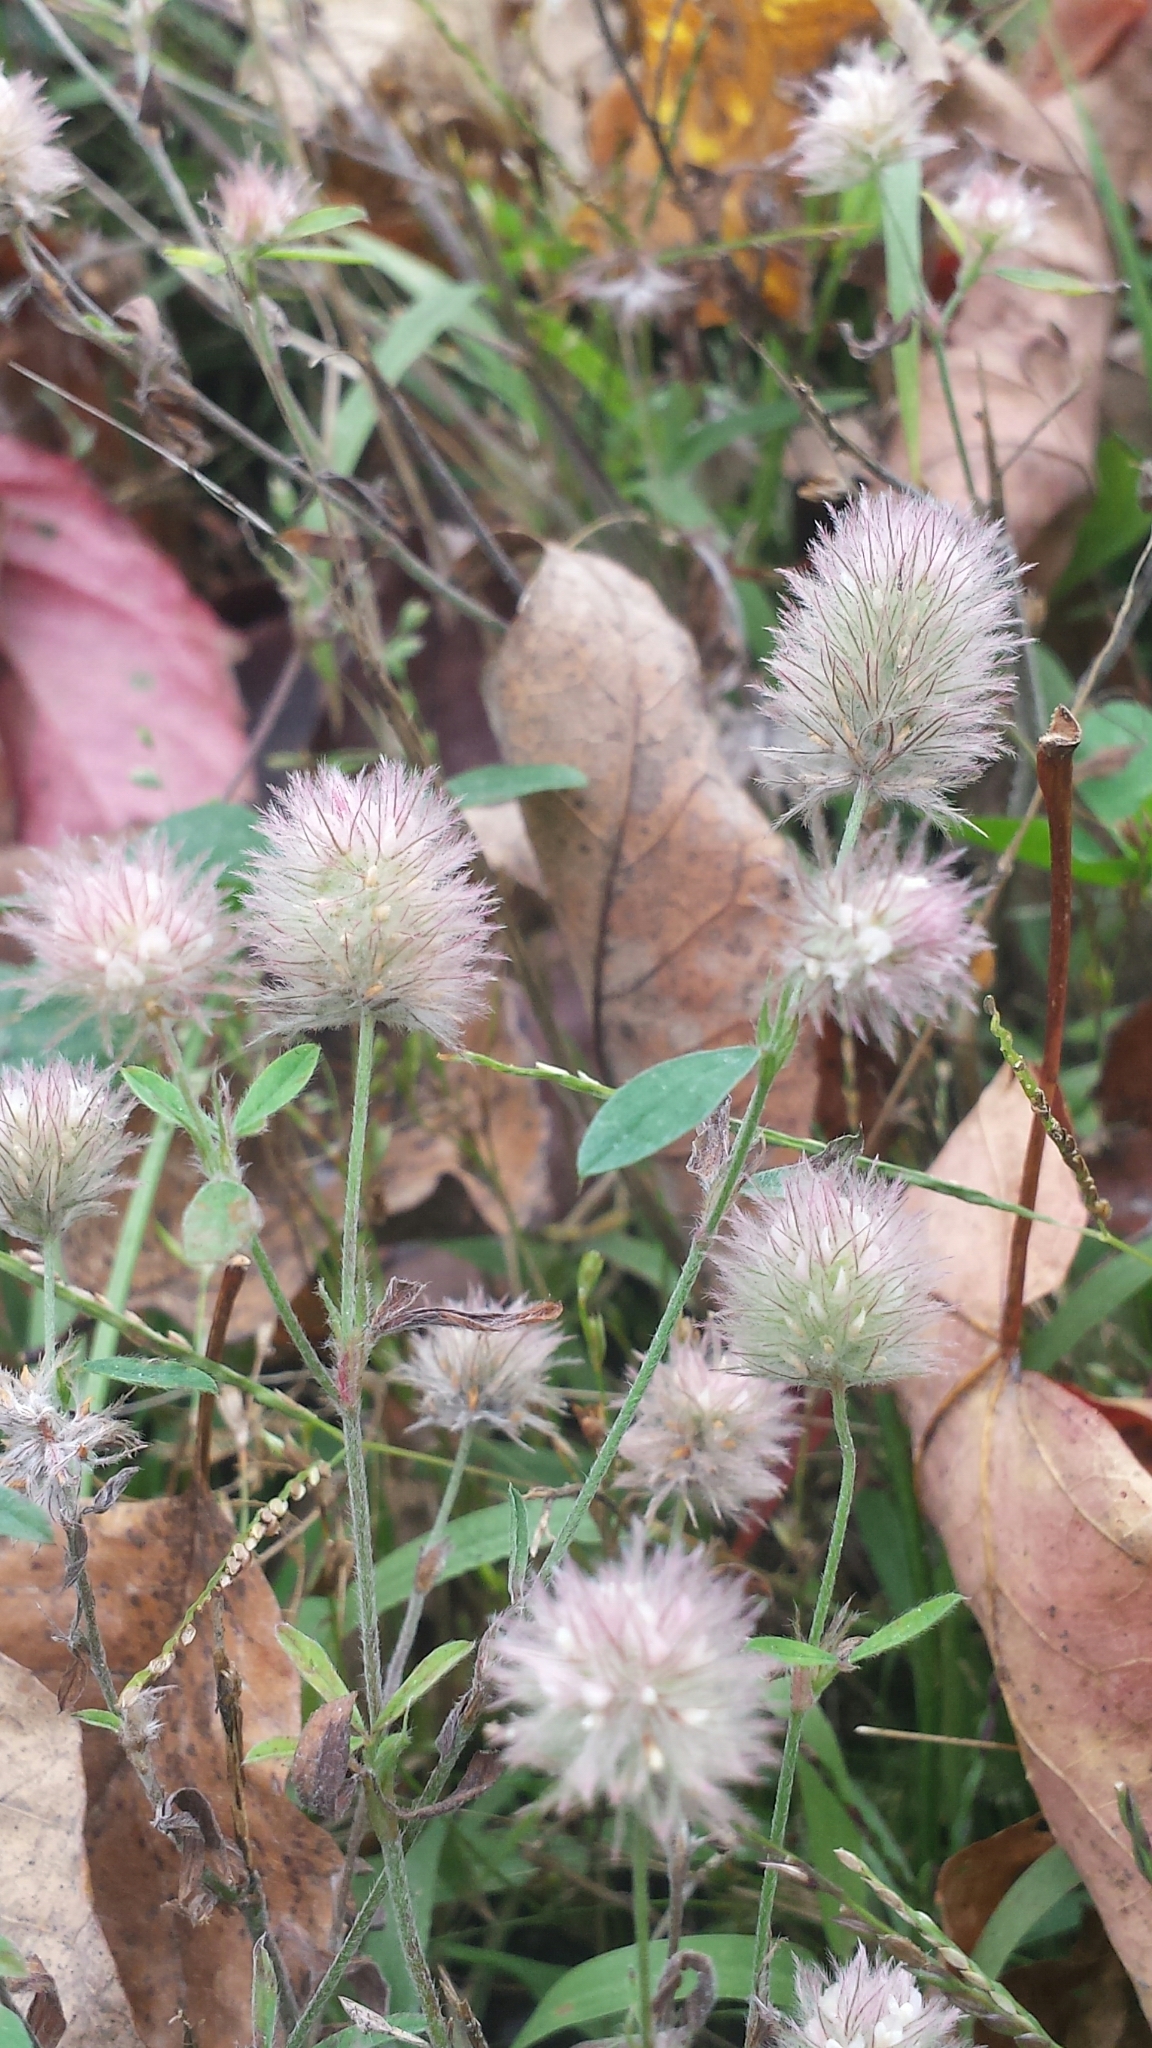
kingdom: Plantae
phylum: Tracheophyta
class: Magnoliopsida
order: Fabales
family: Fabaceae
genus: Trifolium
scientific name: Trifolium arvense
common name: Hare's-foot clover
